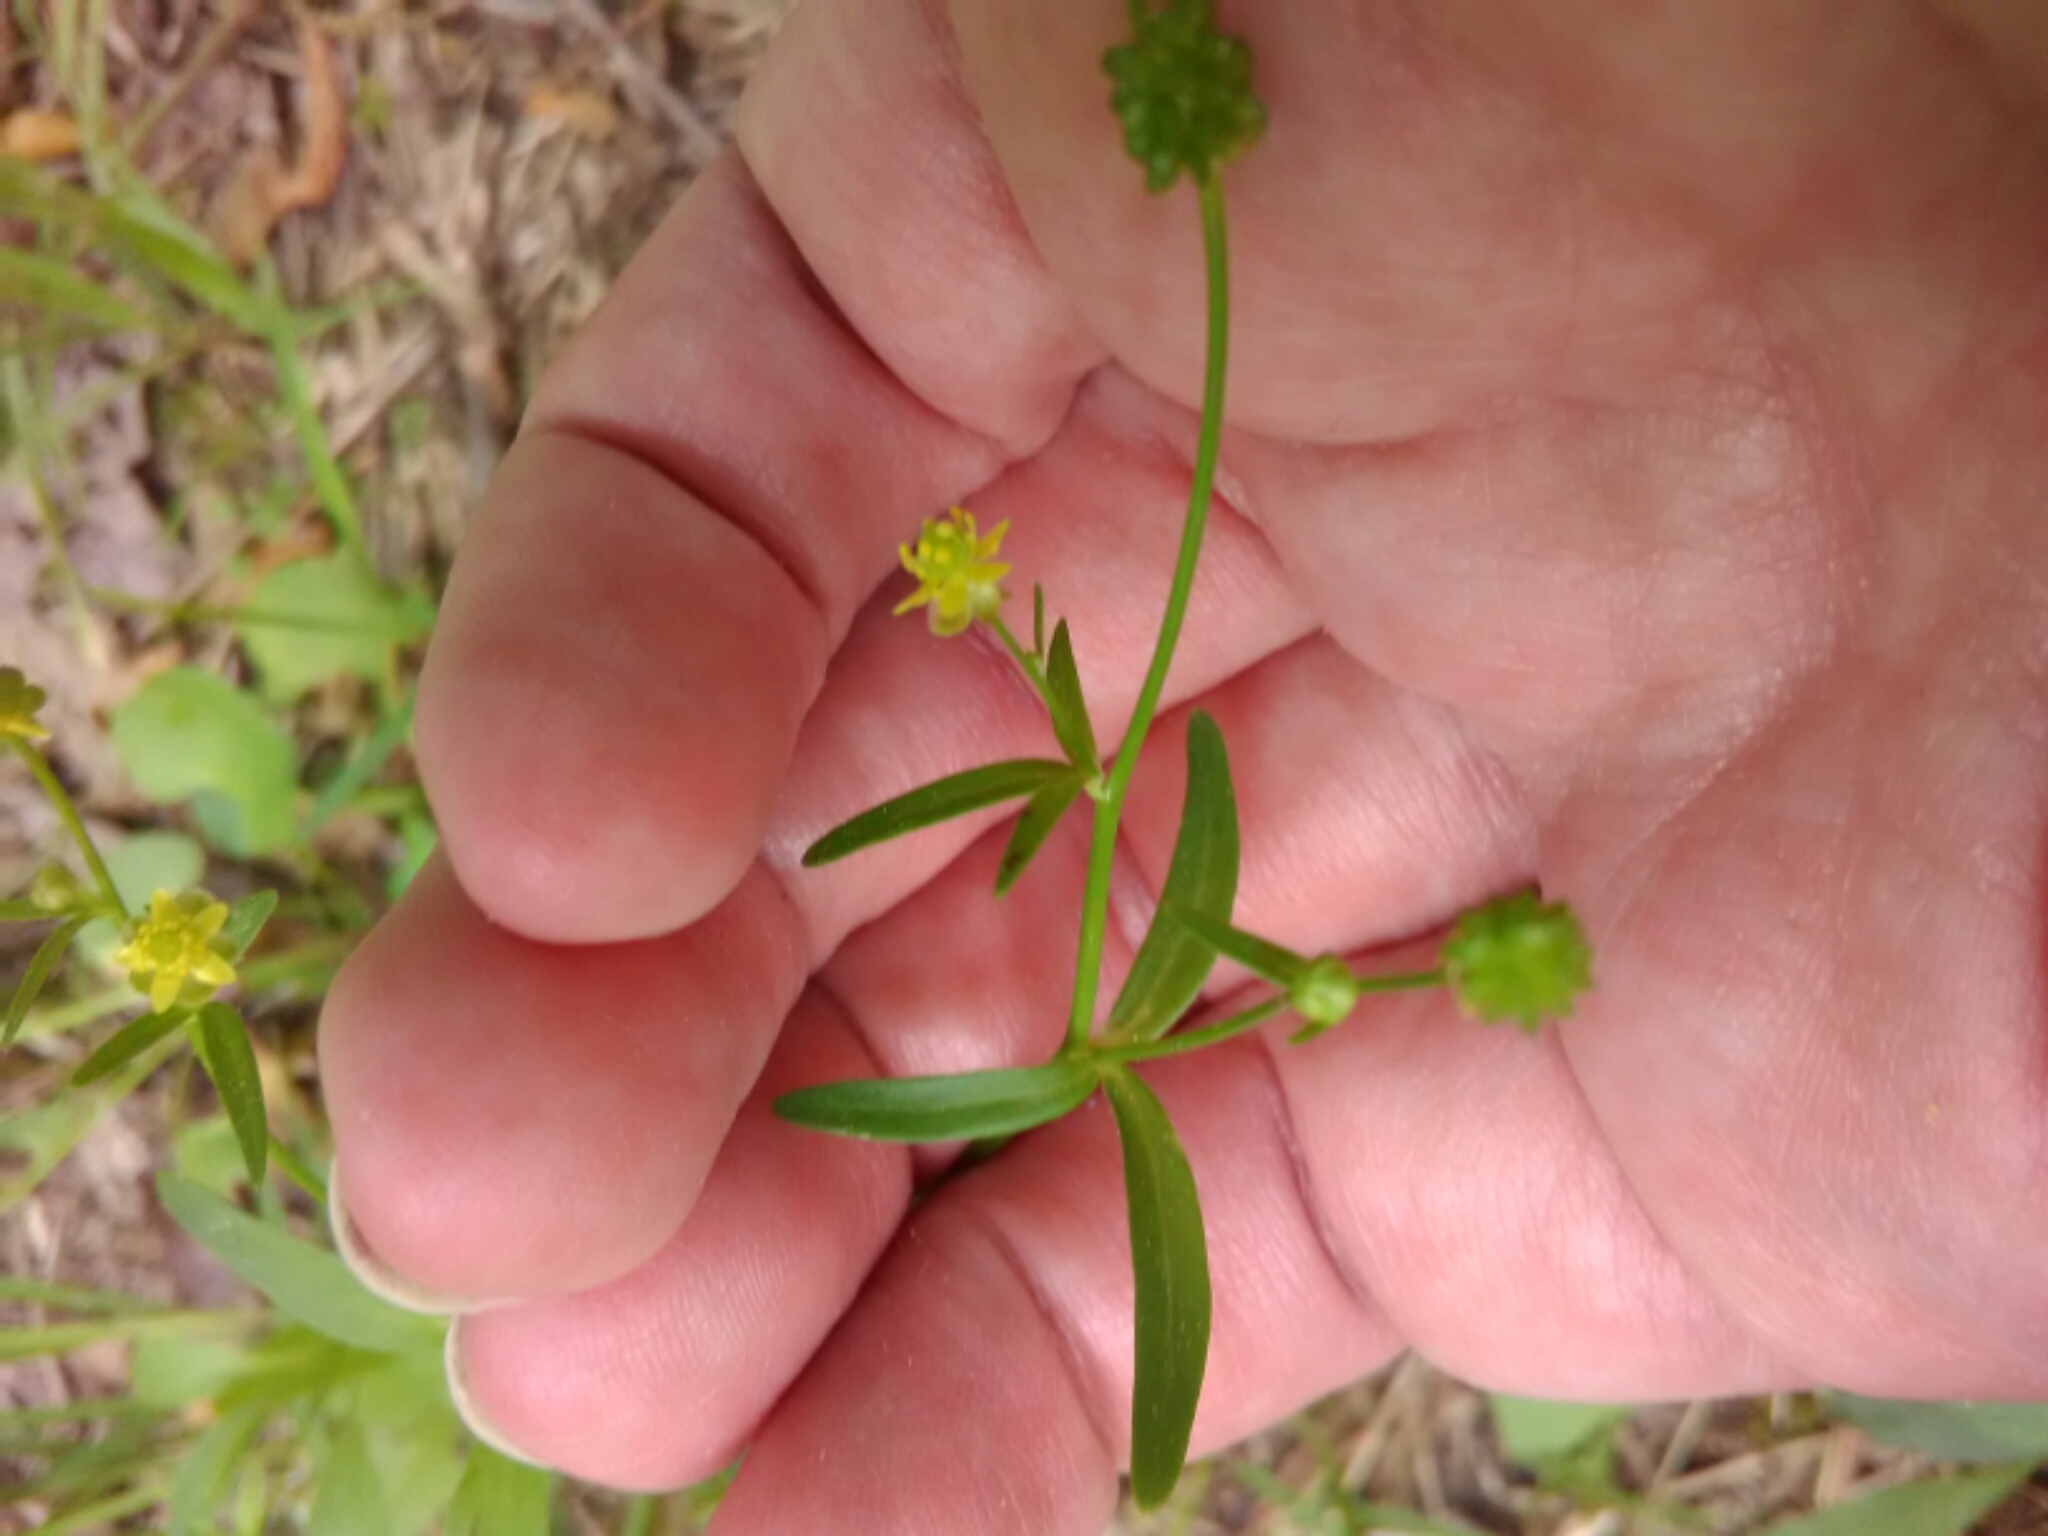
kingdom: Plantae
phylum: Tracheophyta
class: Magnoliopsida
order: Ranunculales
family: Ranunculaceae
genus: Ranunculus
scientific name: Ranunculus abortivus
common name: Early wood buttercup
